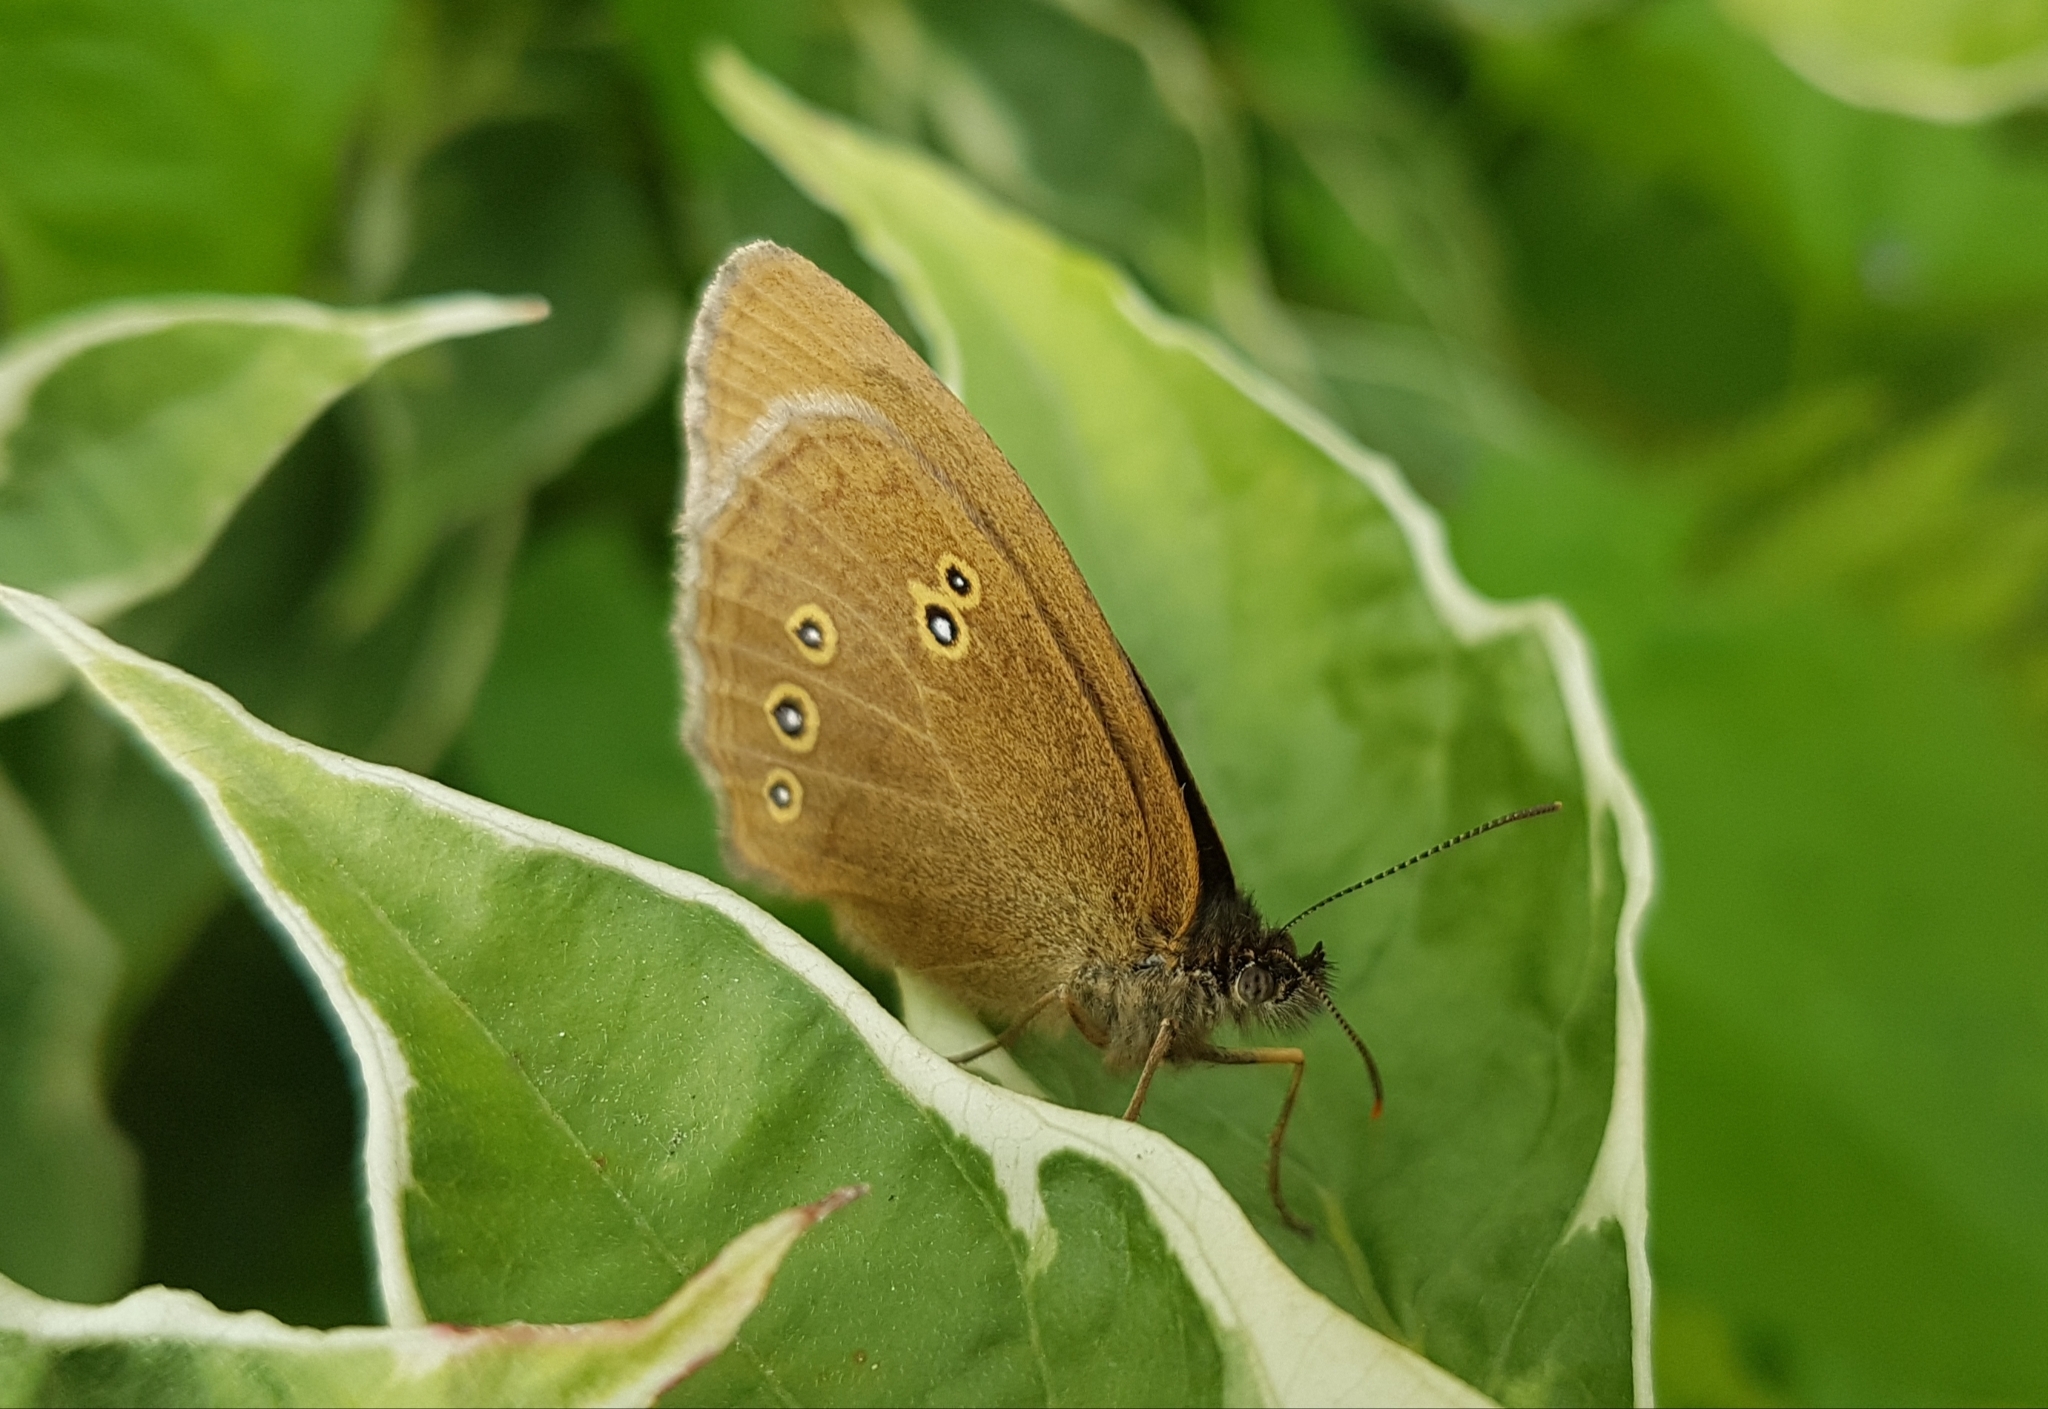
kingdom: Animalia
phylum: Arthropoda
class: Insecta
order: Lepidoptera
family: Nymphalidae
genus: Aphantopus
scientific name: Aphantopus hyperantus
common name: Ringlet
